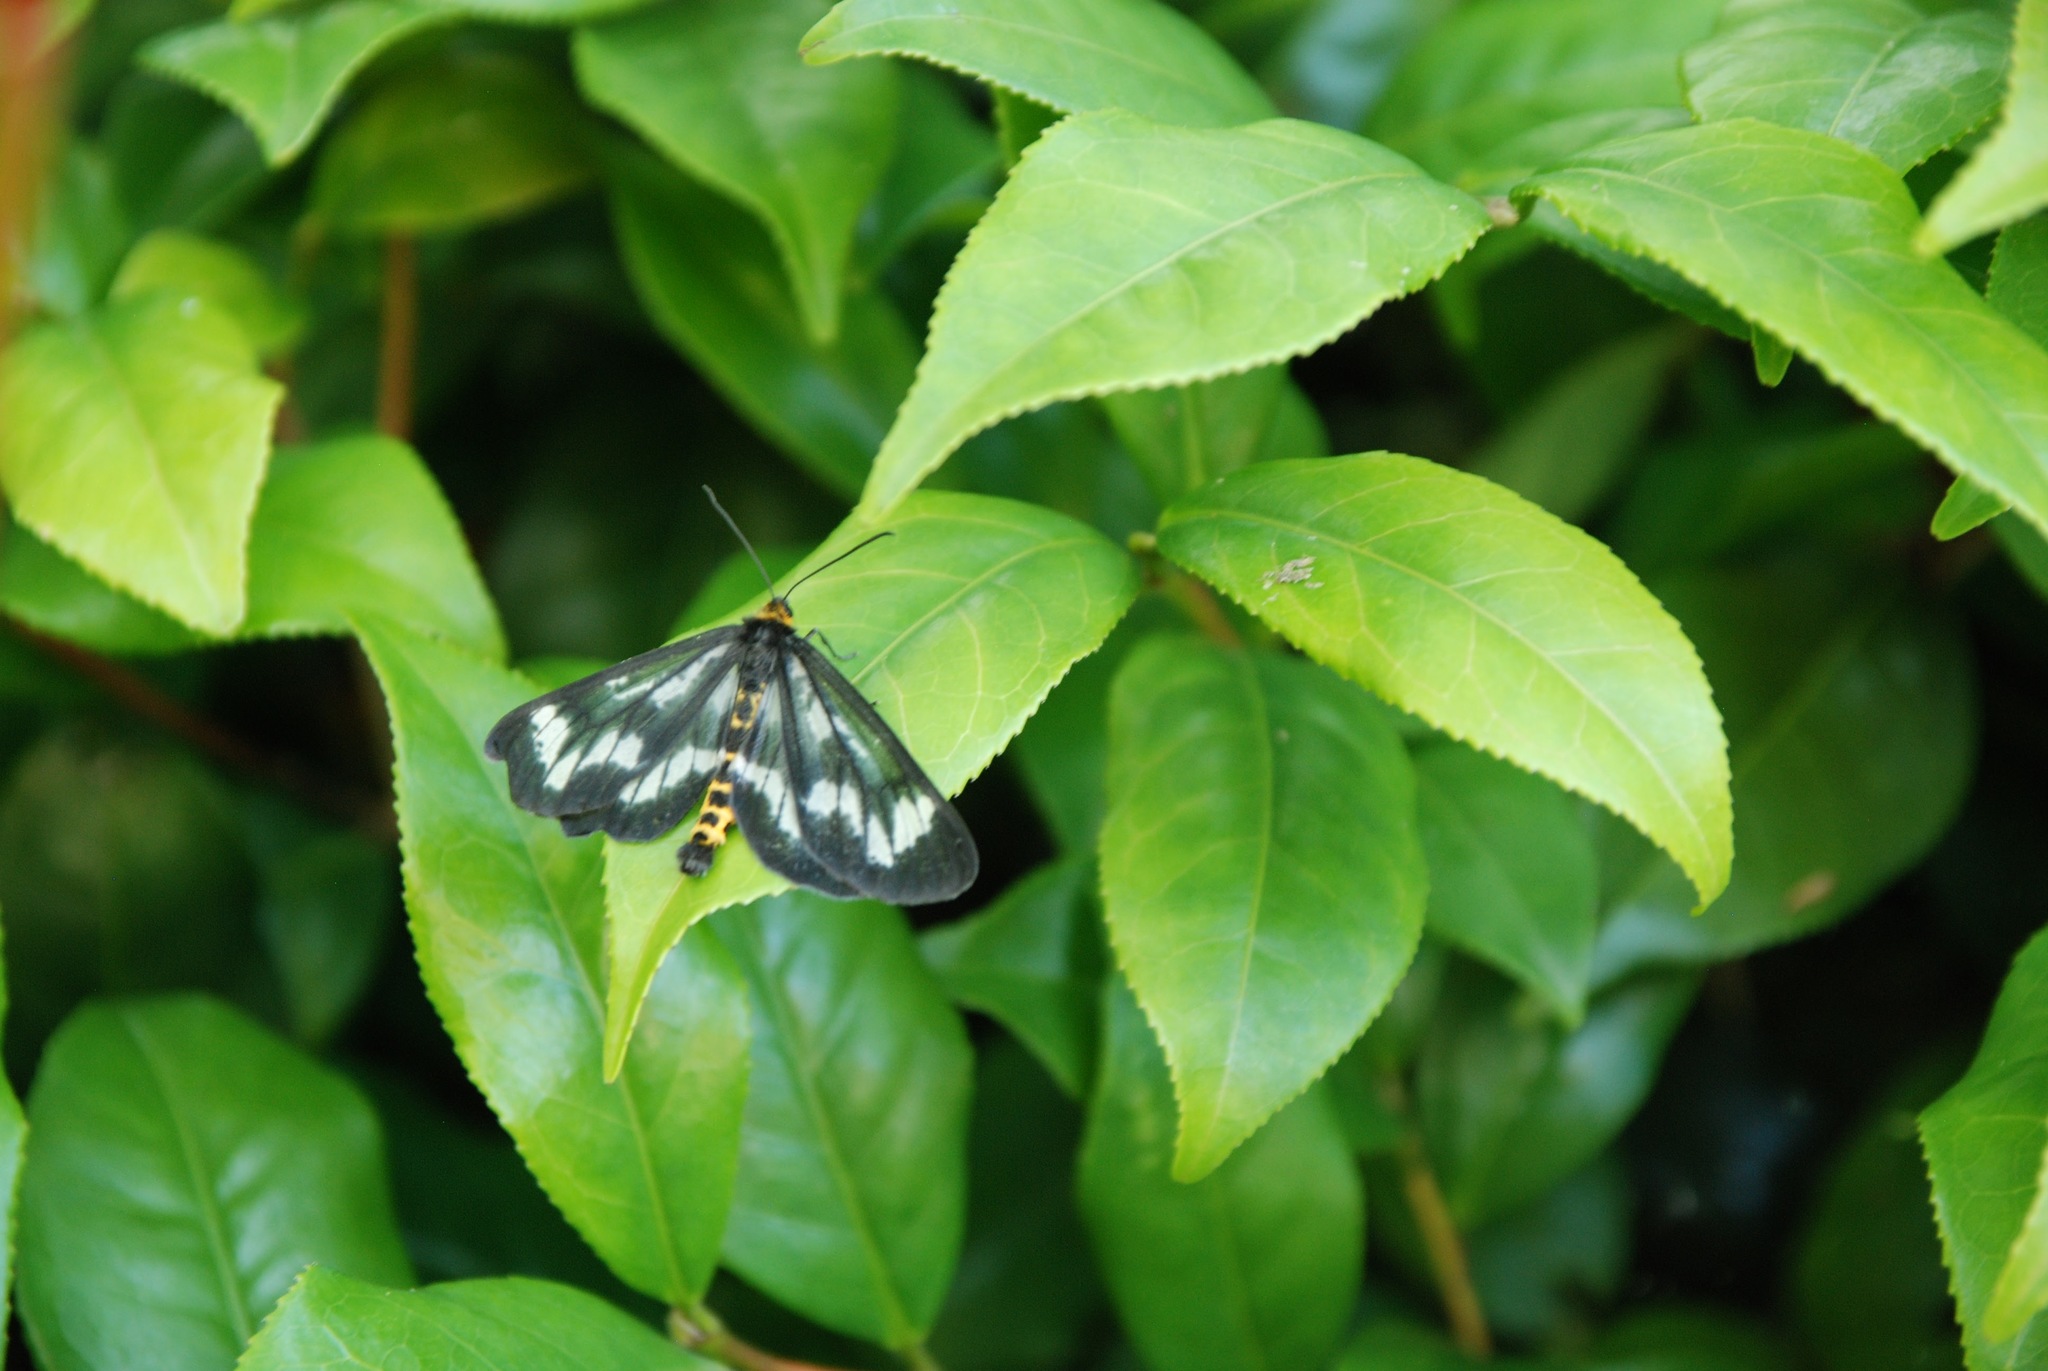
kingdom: Animalia
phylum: Arthropoda
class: Insecta
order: Lepidoptera
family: Geometridae
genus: Cystidia
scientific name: Cystidia stratonice
